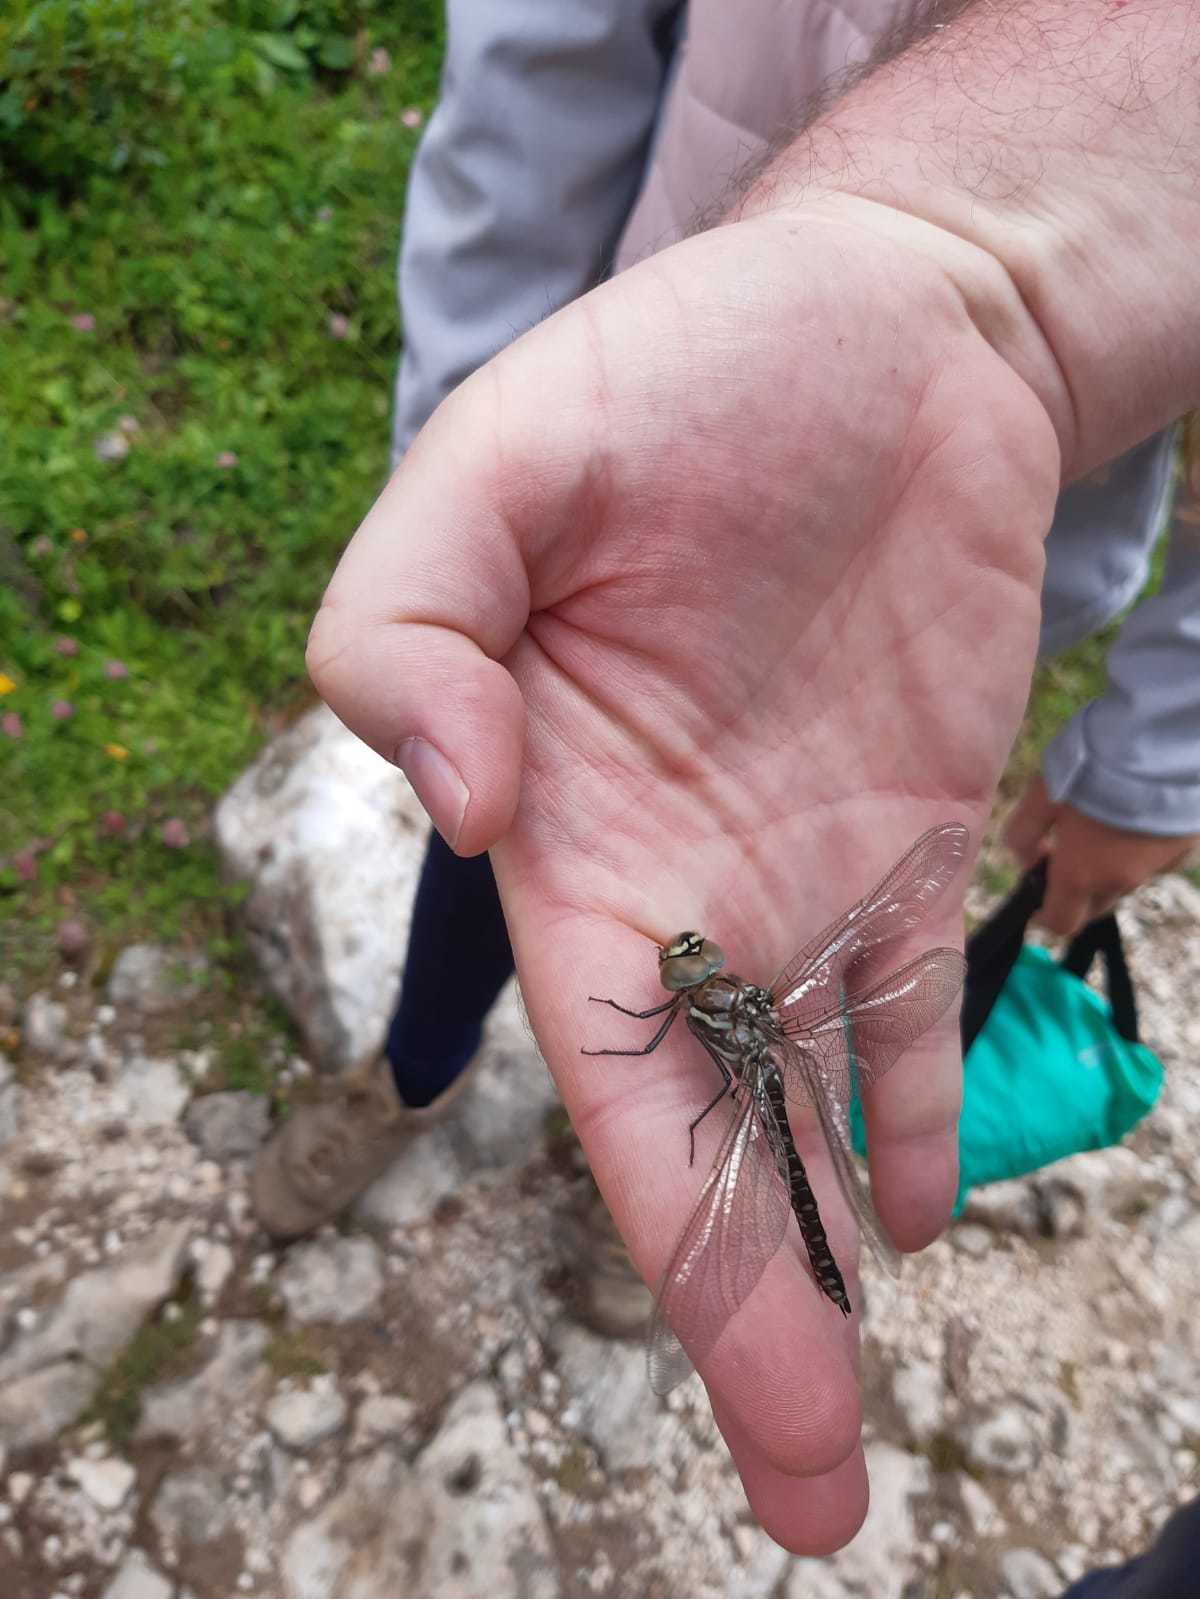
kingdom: Animalia
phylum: Arthropoda
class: Insecta
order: Odonata
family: Aeshnidae
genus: Aeshna
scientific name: Aeshna juncea
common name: Moorland hawker
